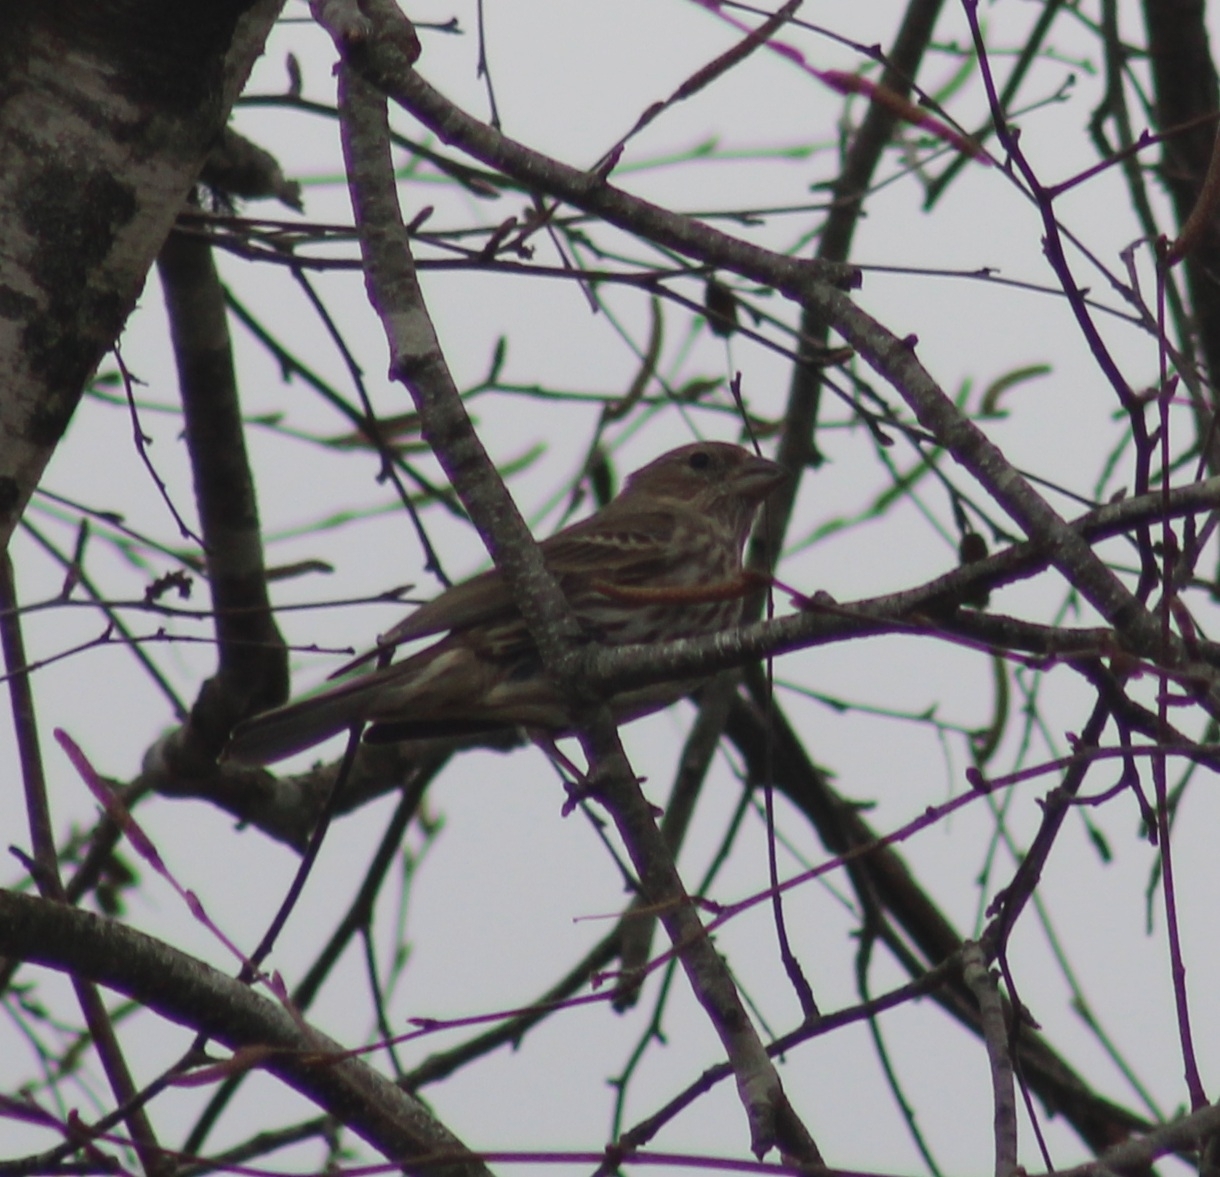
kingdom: Animalia
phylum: Chordata
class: Aves
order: Passeriformes
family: Fringillidae
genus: Haemorhous
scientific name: Haemorhous mexicanus
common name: House finch
